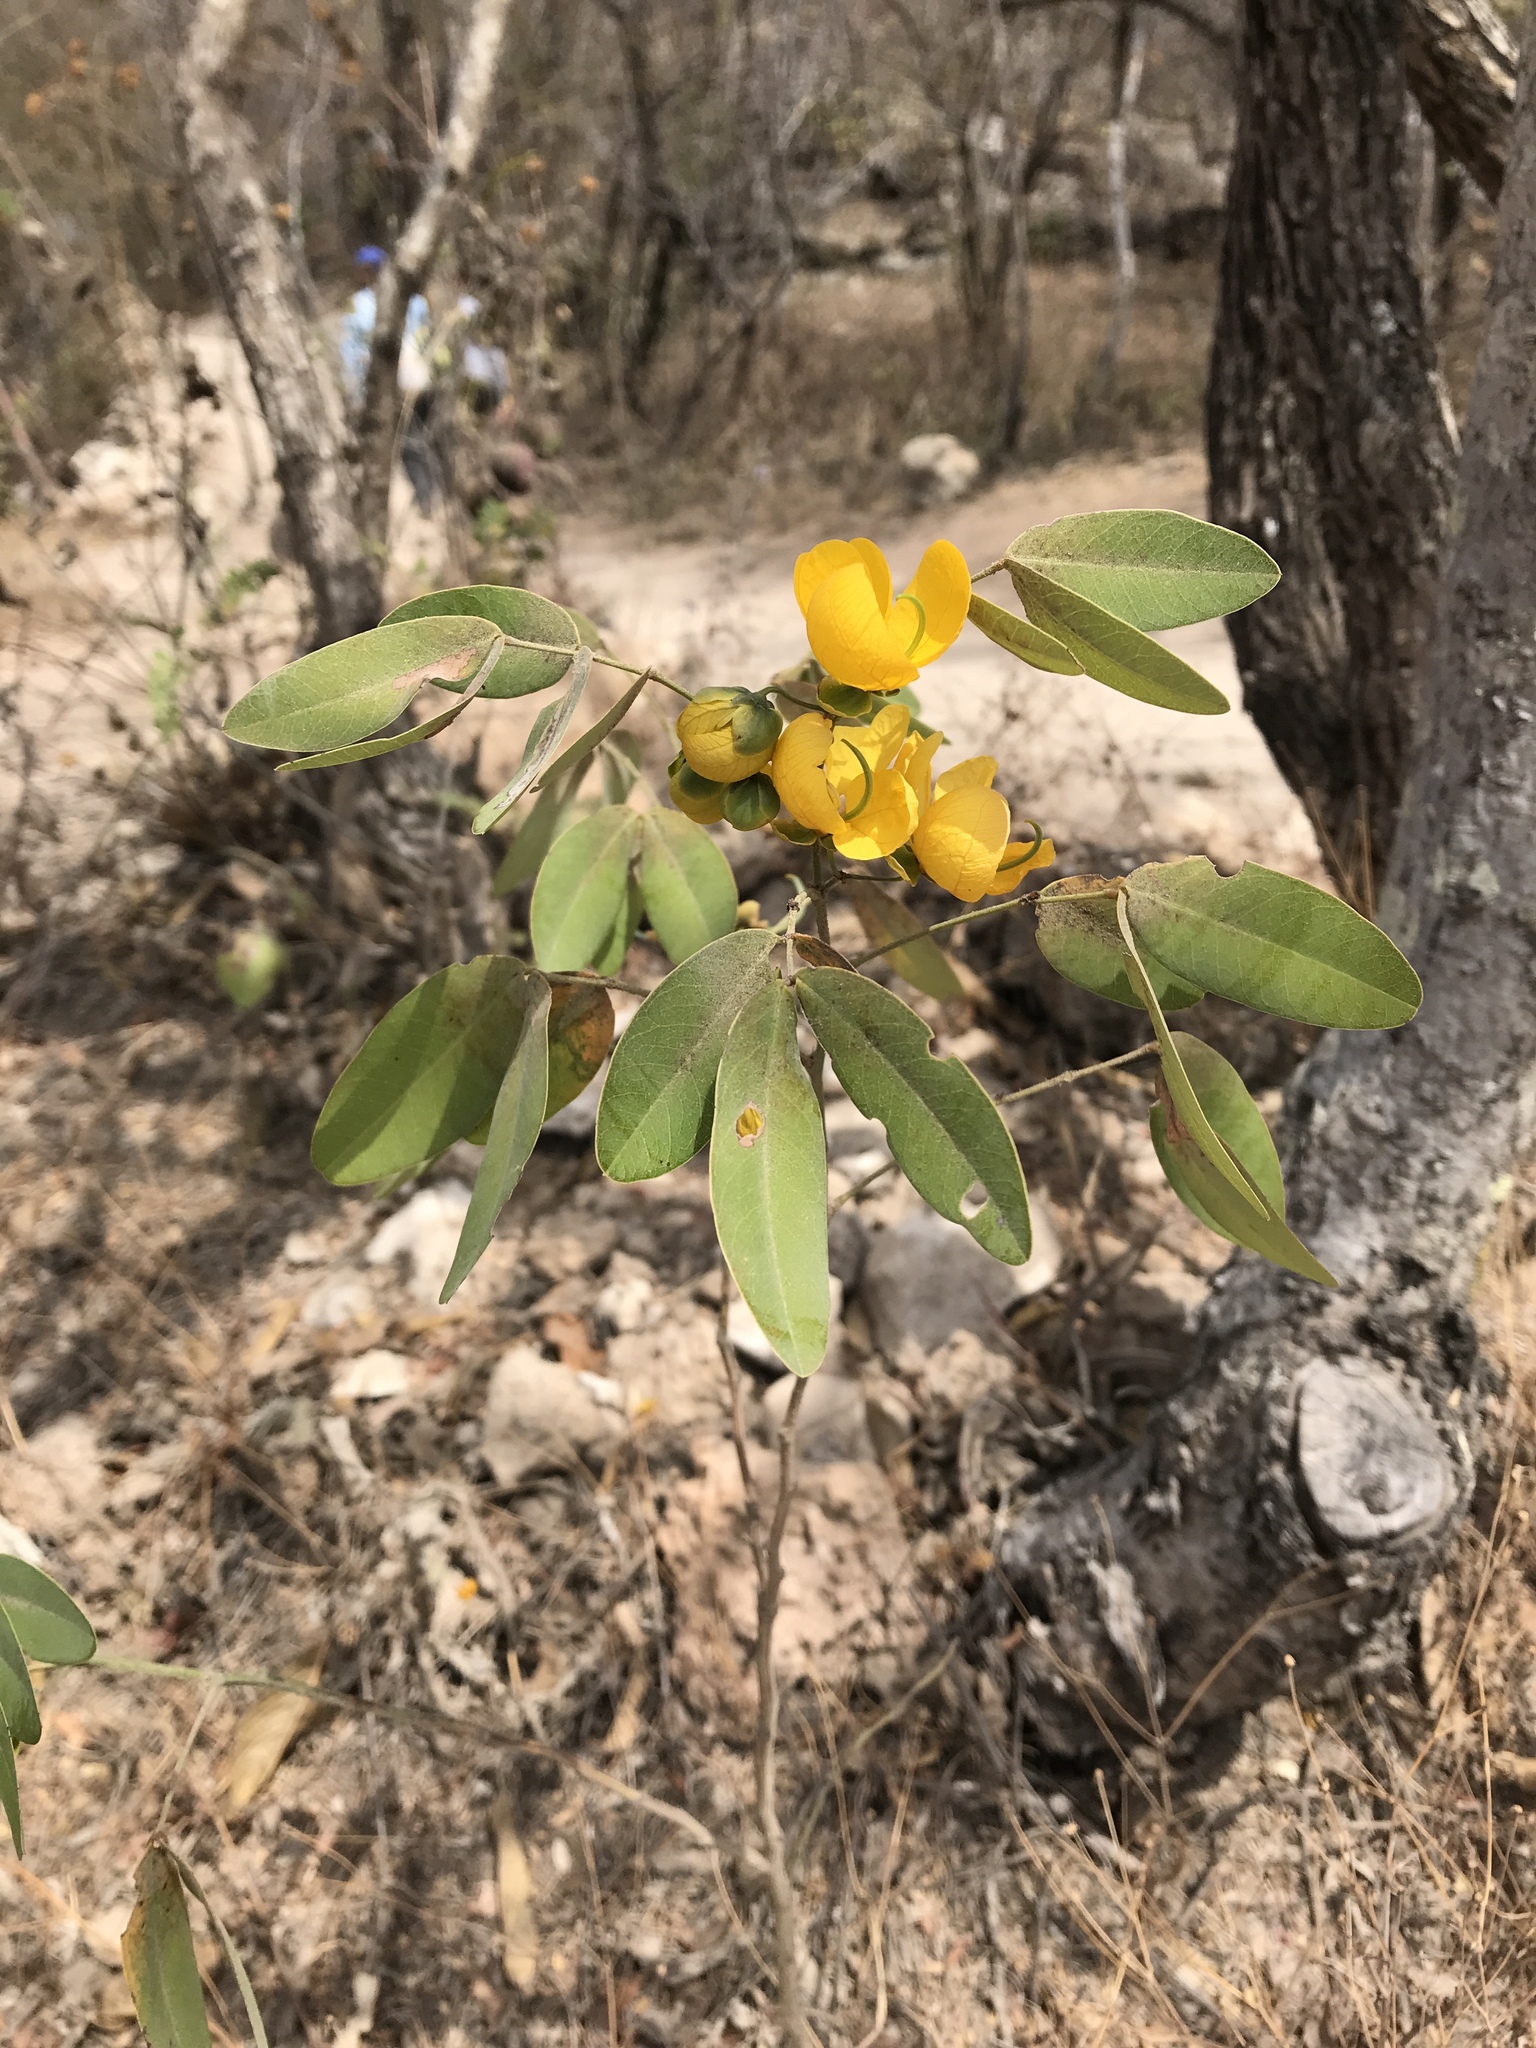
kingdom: Plantae
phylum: Tracheophyta
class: Magnoliopsida
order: Fabales
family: Fabaceae
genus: Senna
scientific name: Senna atomaria
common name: Flor de san jose
